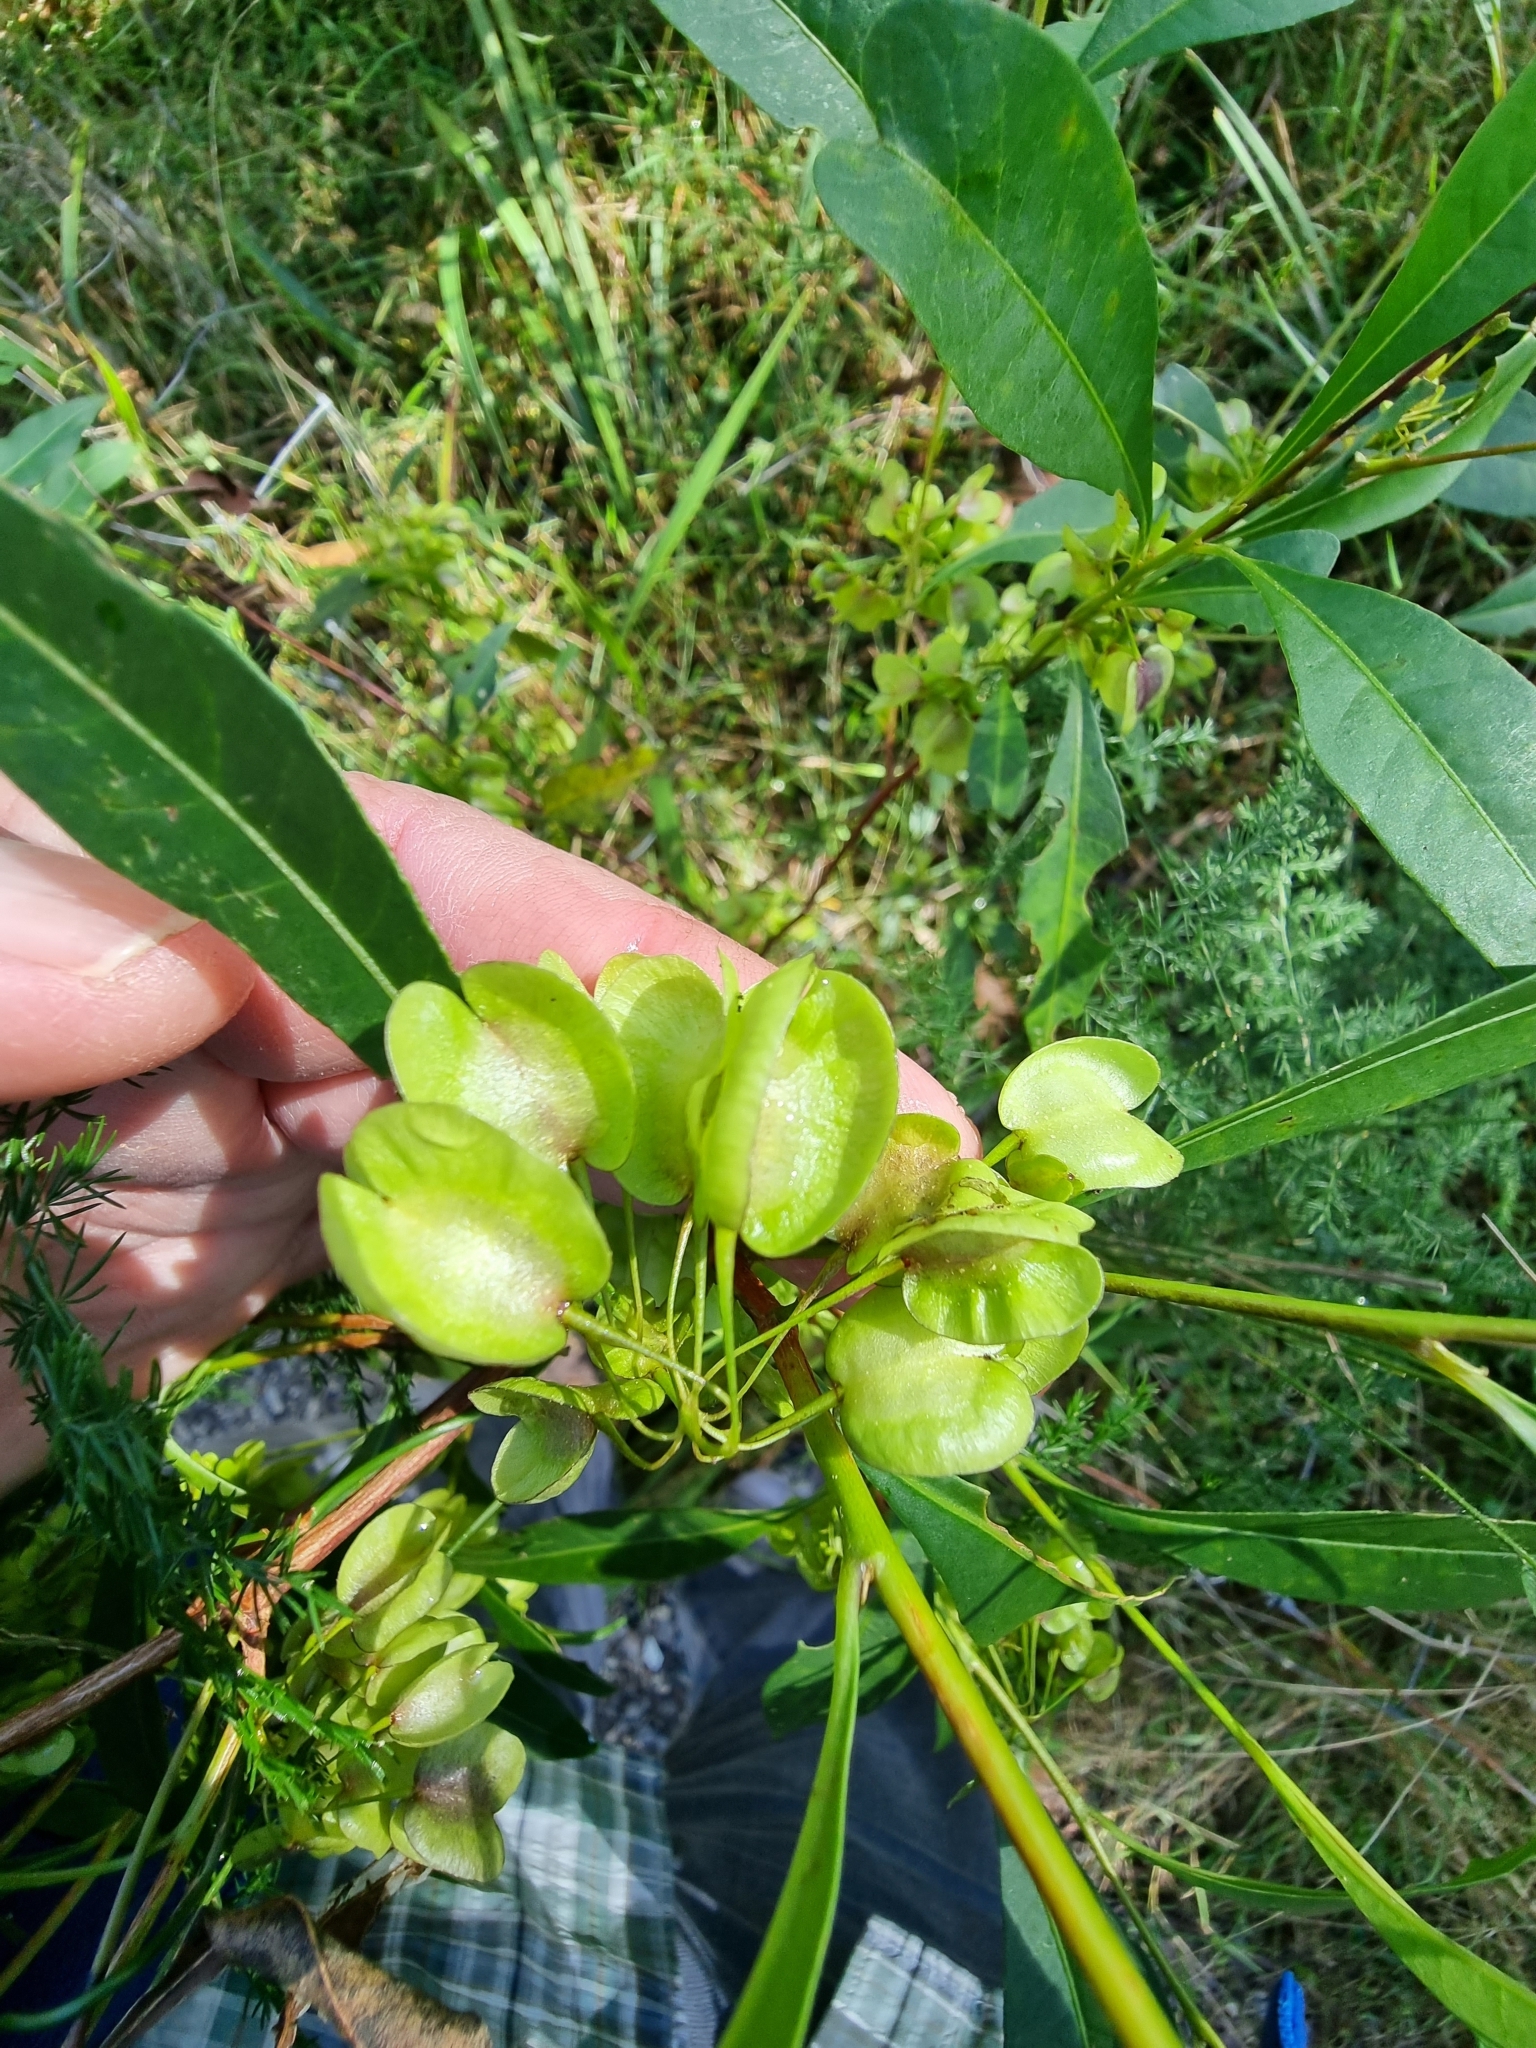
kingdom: Plantae
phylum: Tracheophyta
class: Magnoliopsida
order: Sapindales
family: Sapindaceae
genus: Dodonaea
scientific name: Dodonaea triquetra
